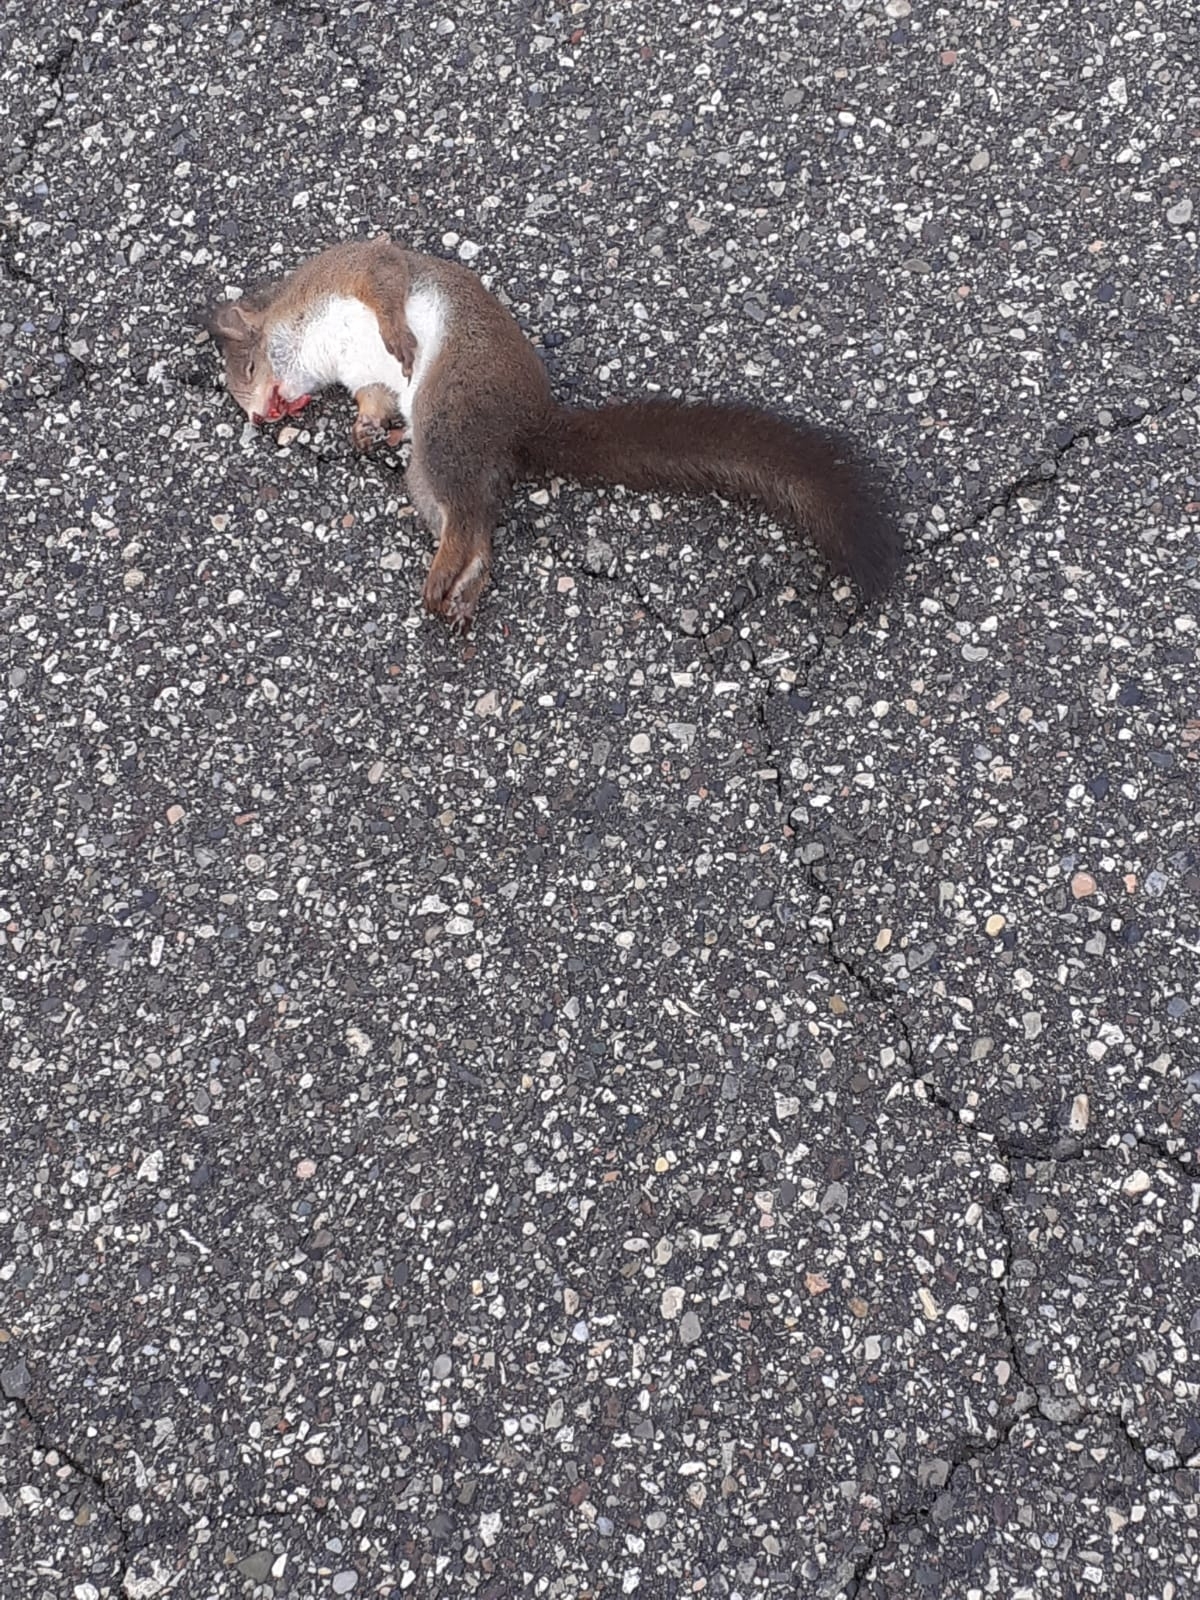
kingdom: Animalia
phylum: Chordata
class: Mammalia
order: Rodentia
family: Sciuridae
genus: Sciurus
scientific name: Sciurus vulgaris
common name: Eurasian red squirrel
